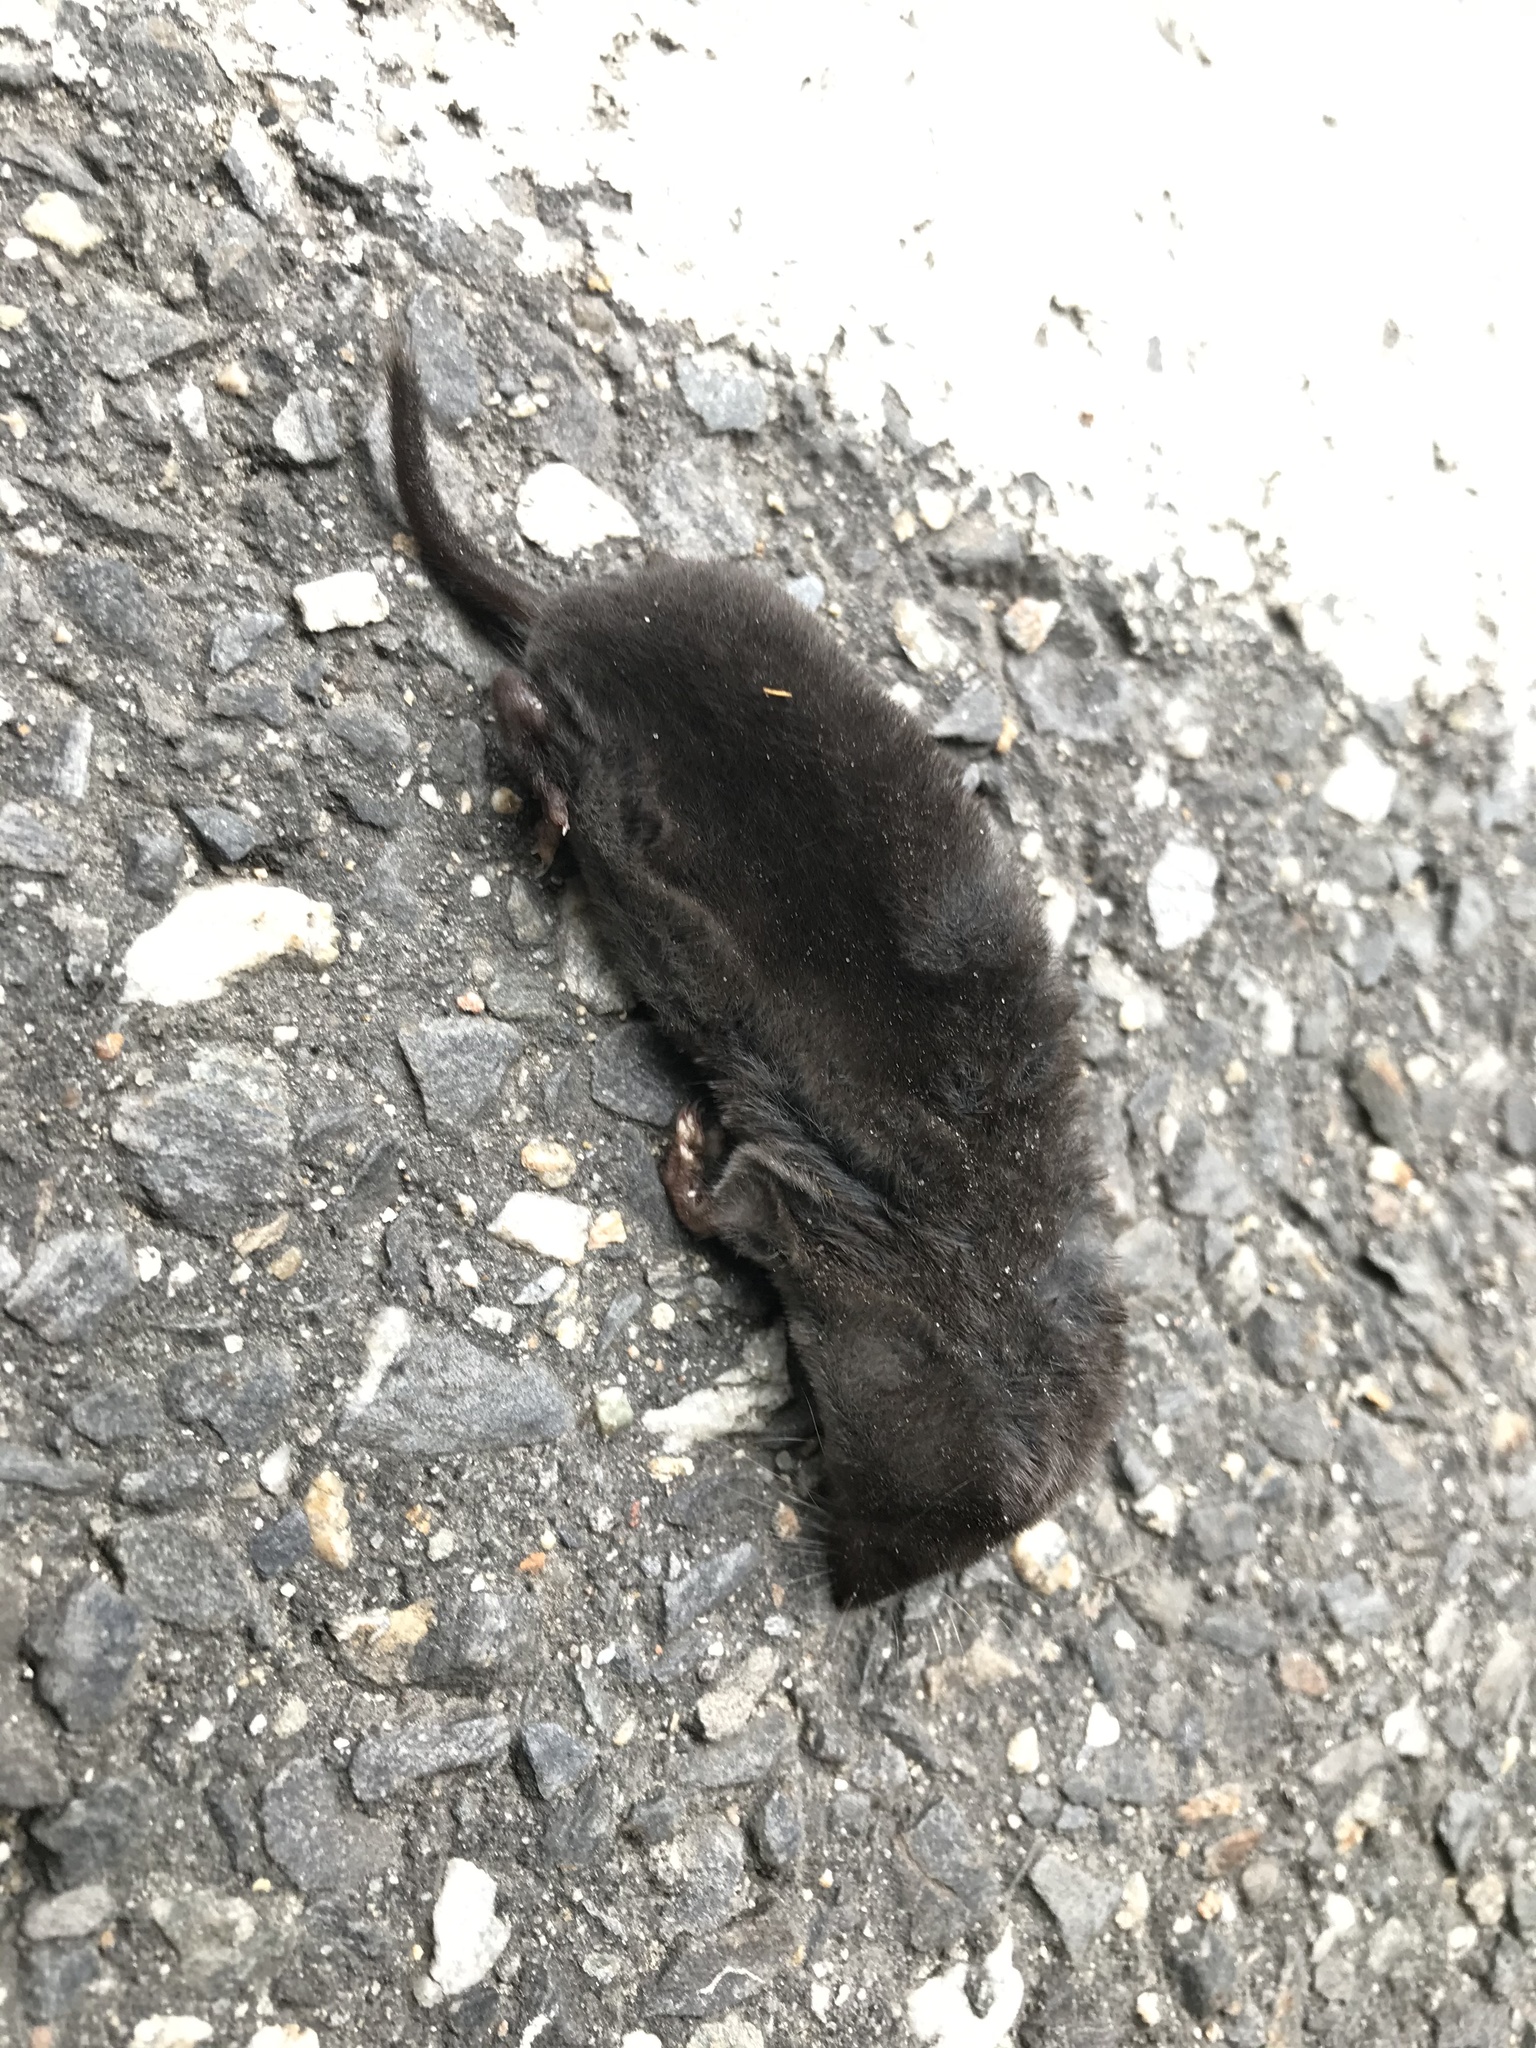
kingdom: Animalia
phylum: Chordata
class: Mammalia
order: Soricomorpha
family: Soricidae
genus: Blarina
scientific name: Blarina brevicauda
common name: Northern short-tailed shrew
